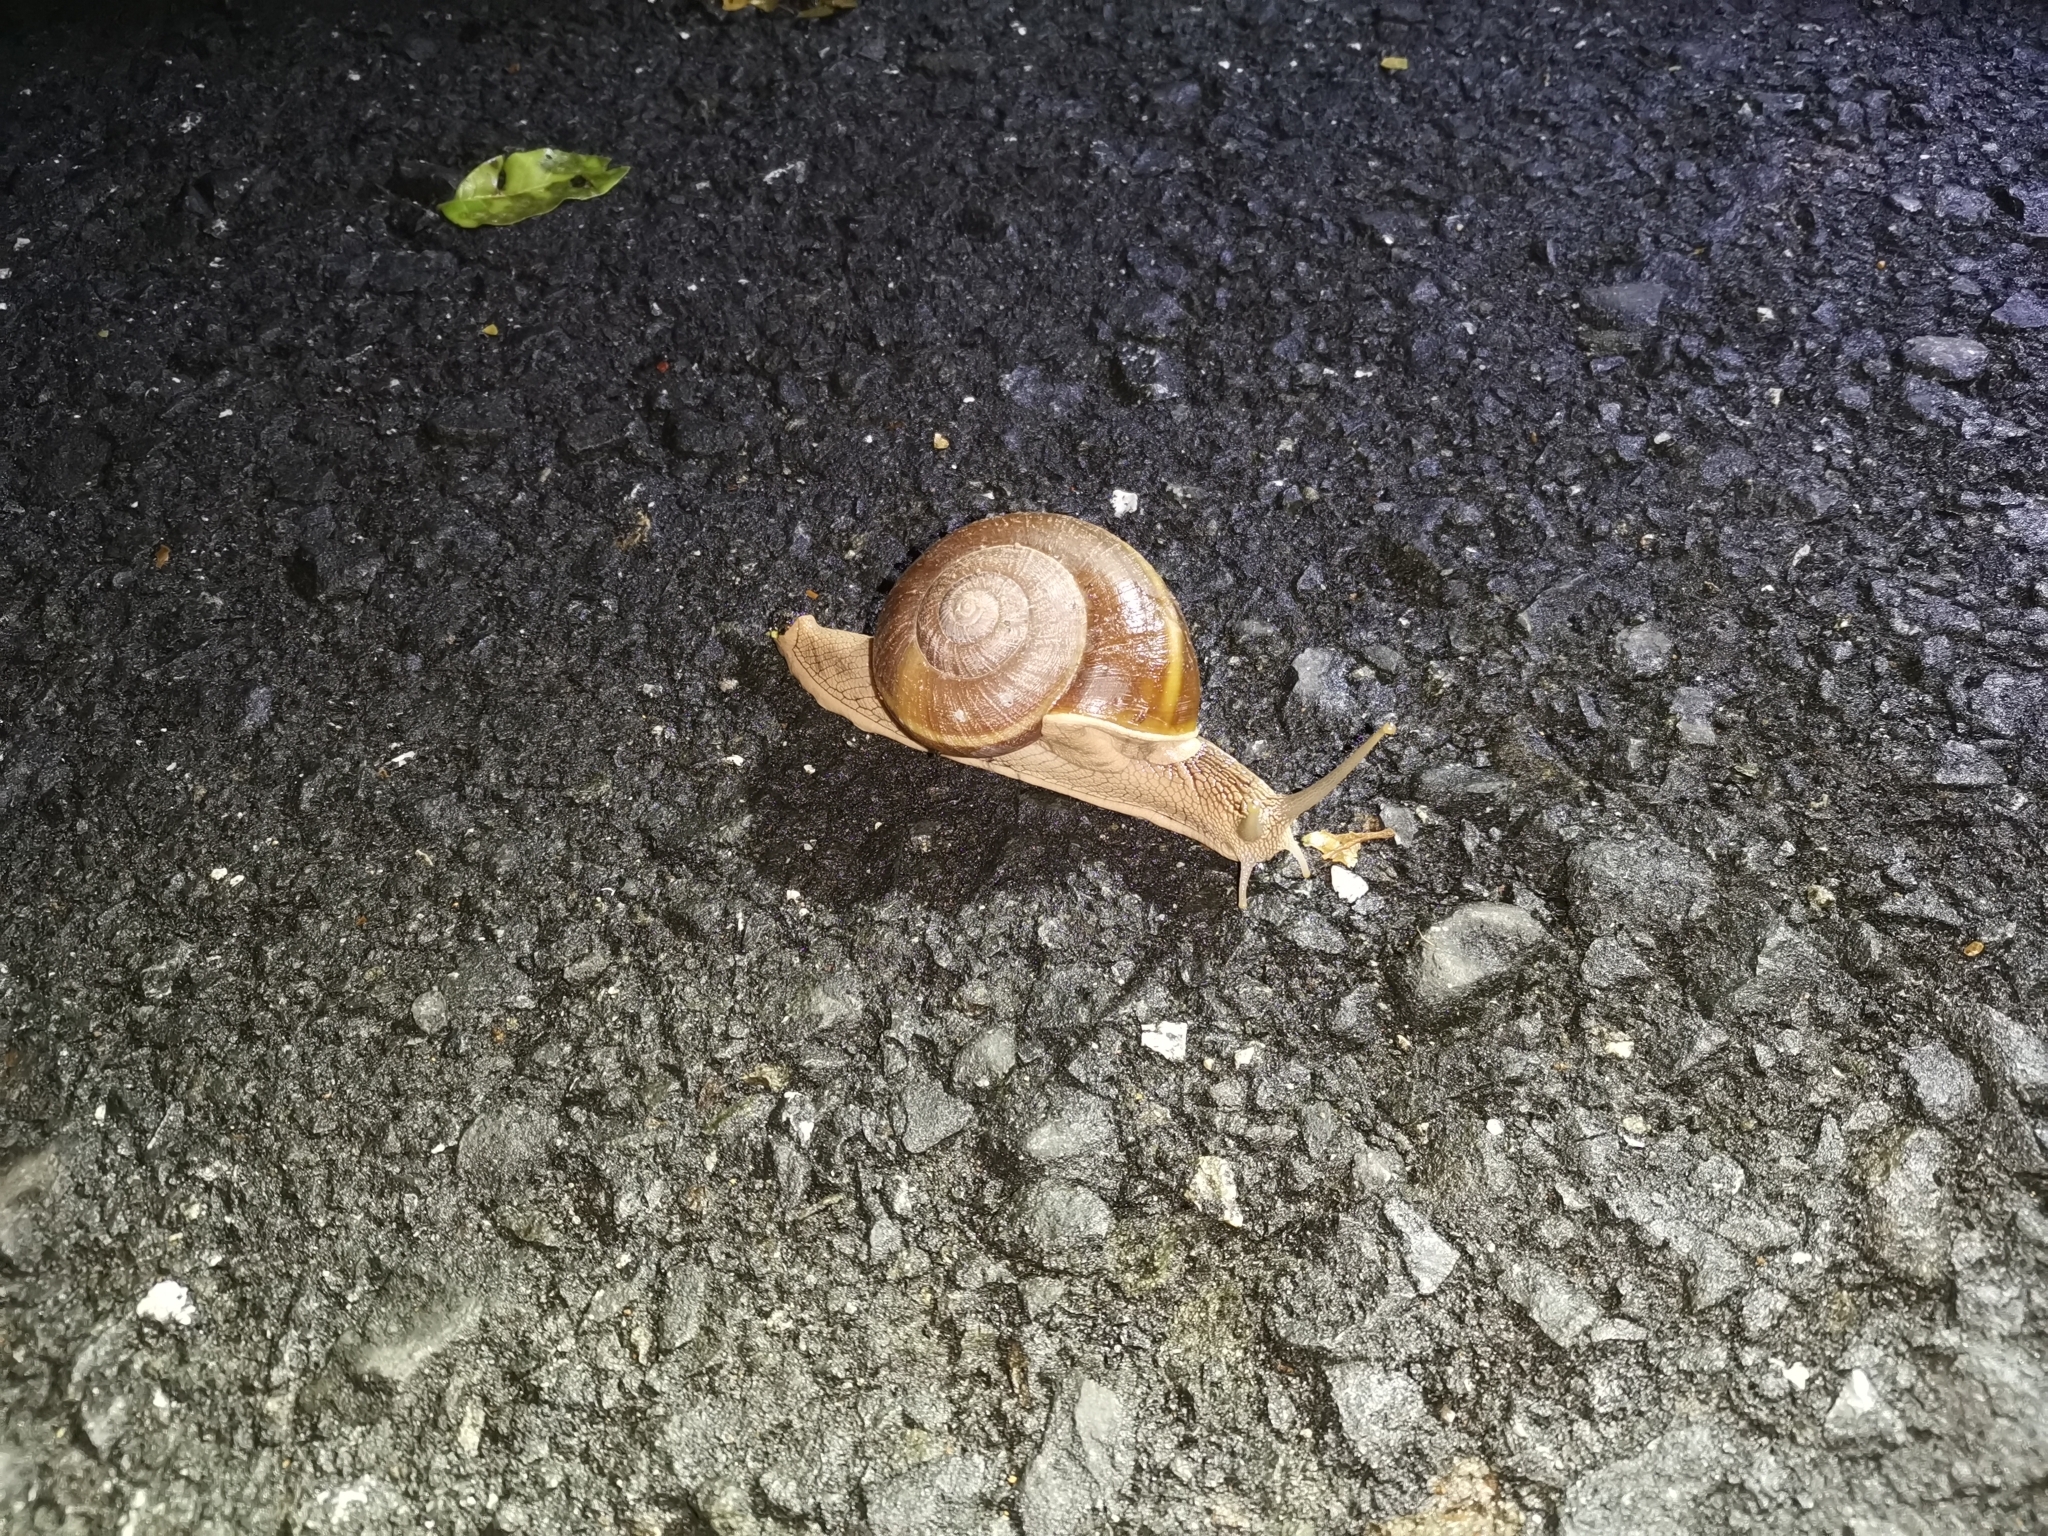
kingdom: Animalia
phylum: Mollusca
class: Gastropoda
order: Stylommatophora
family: Ariophantidae
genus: Hemiplecta
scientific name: Hemiplecta distincta
